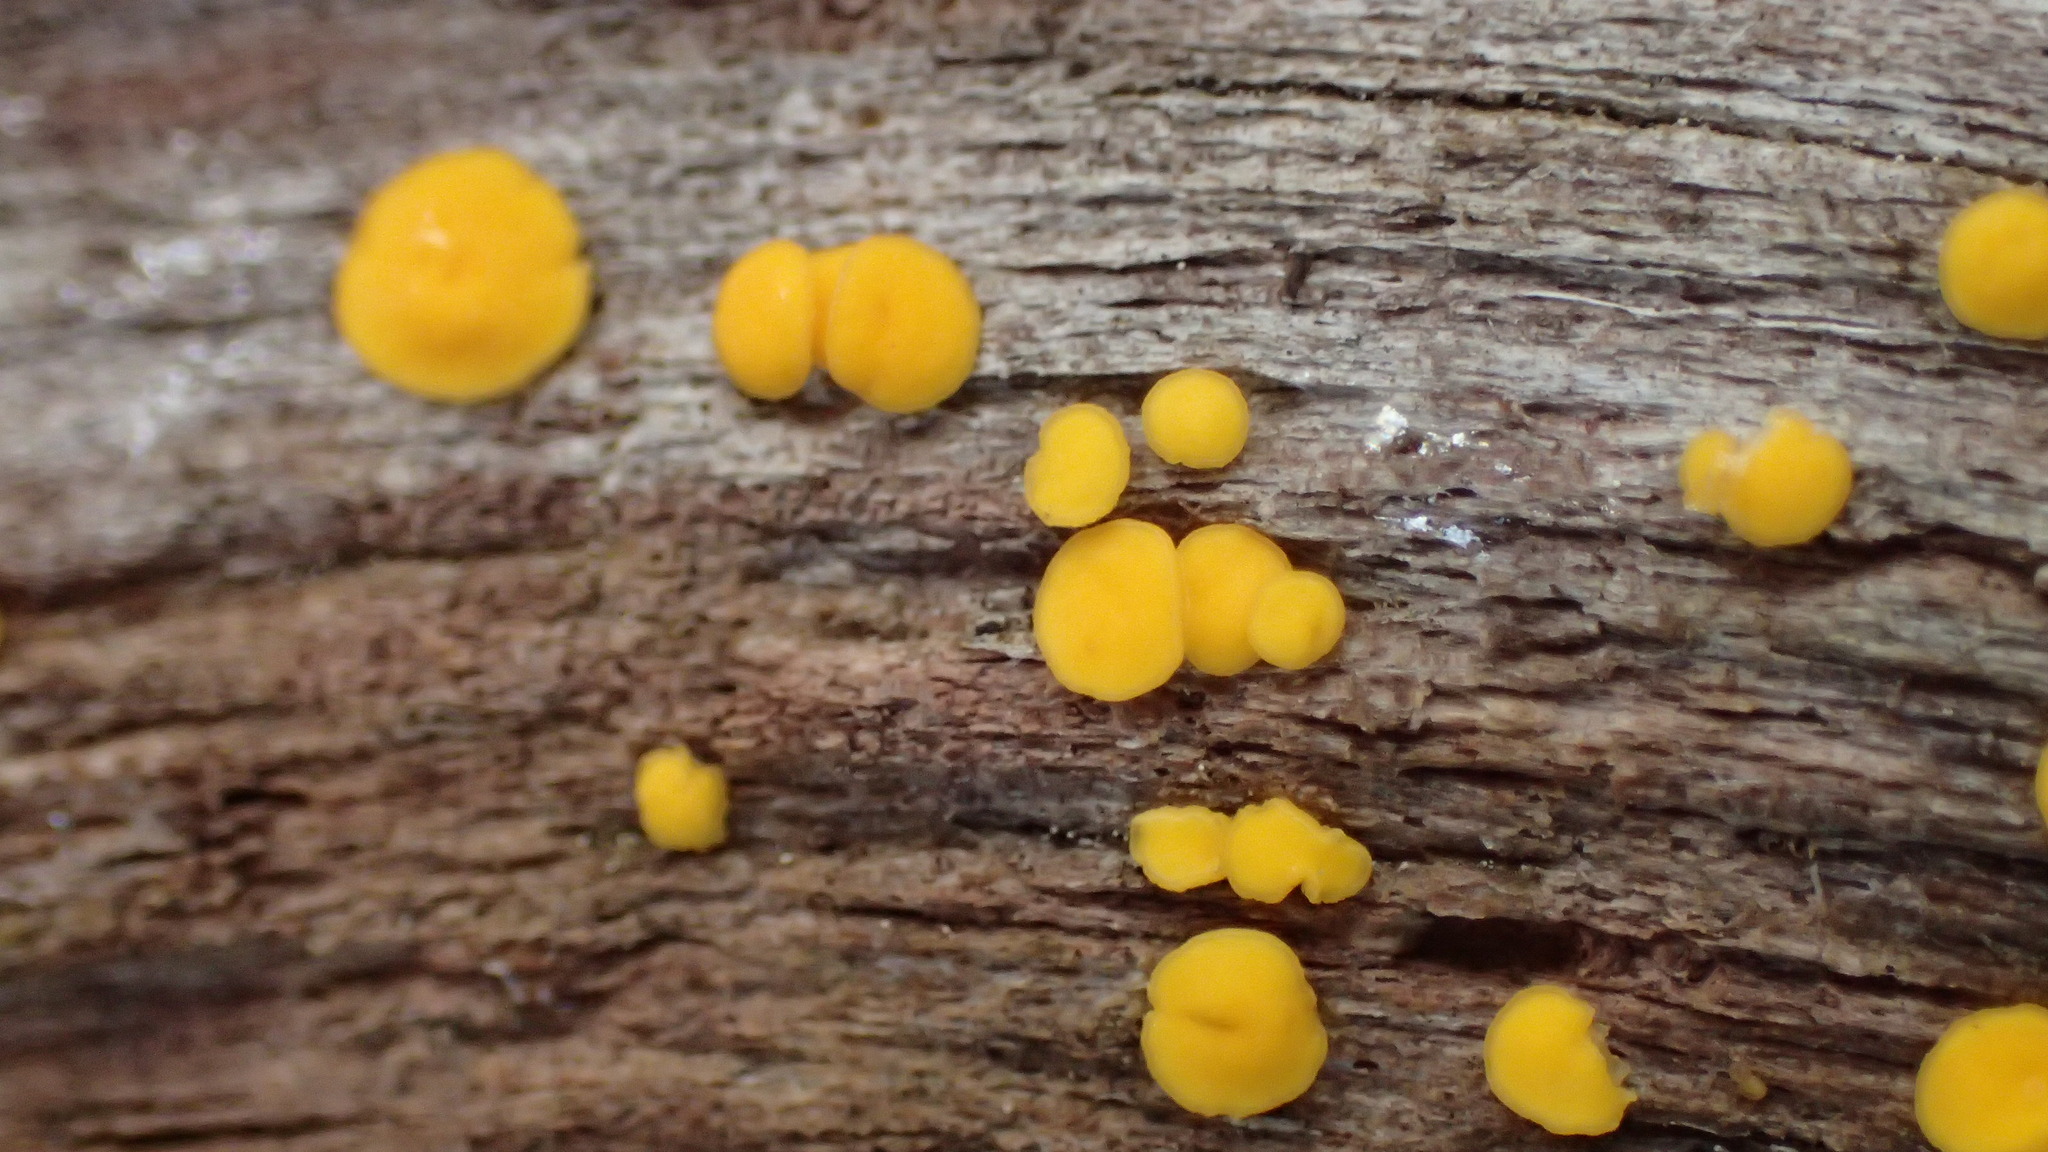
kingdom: Fungi
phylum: Ascomycota
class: Leotiomycetes
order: Helotiales
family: Pezizellaceae
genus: Calycina
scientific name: Calycina citrina
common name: Yellow fairy cups
